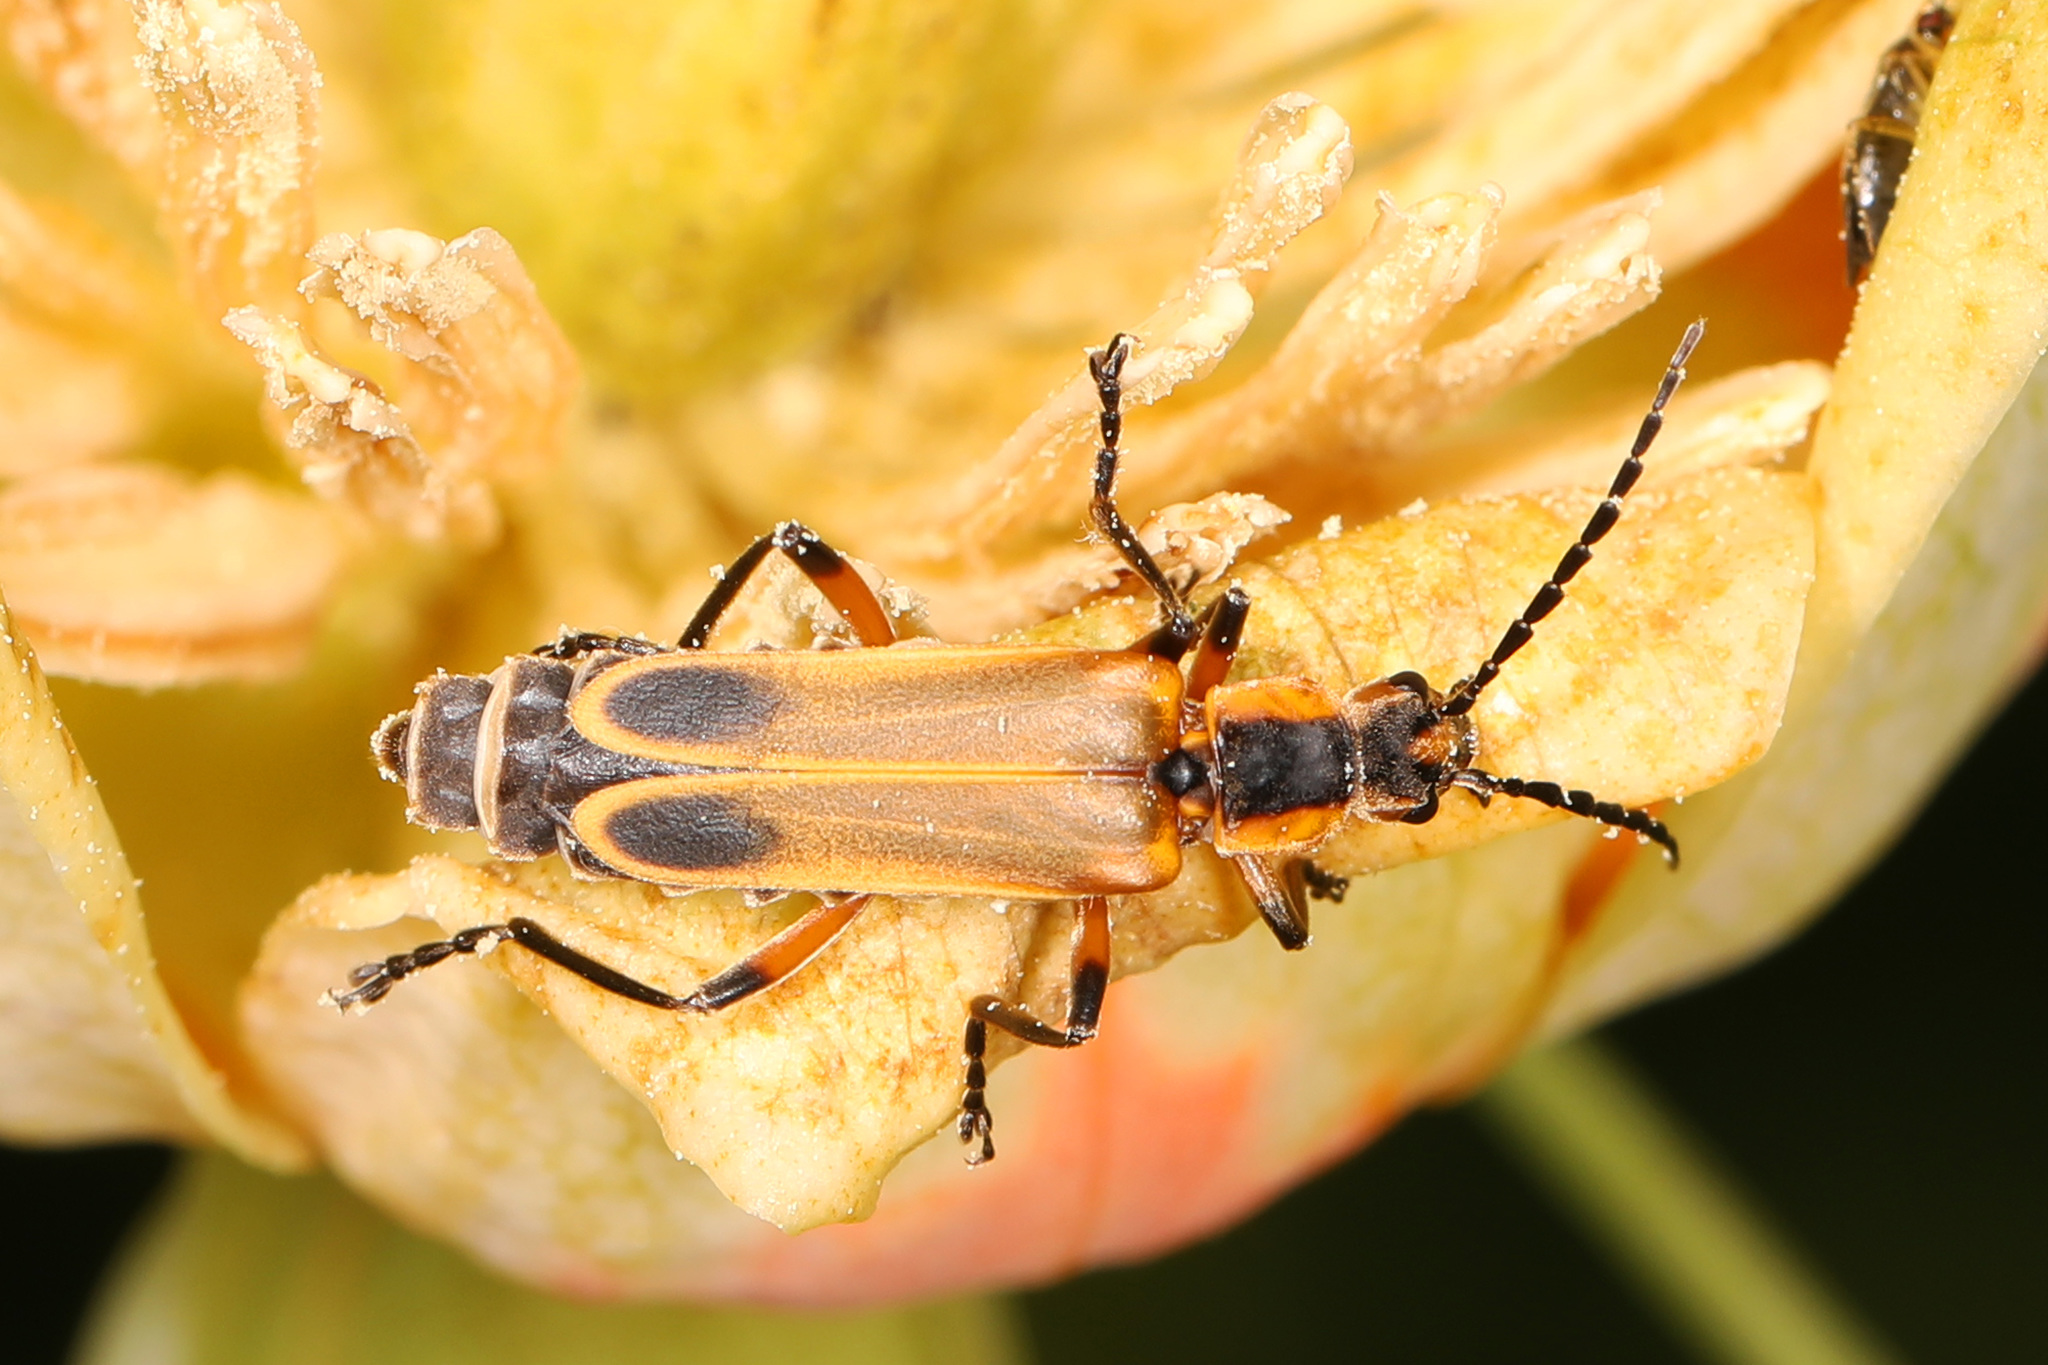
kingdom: Animalia
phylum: Arthropoda
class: Insecta
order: Coleoptera
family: Cantharidae
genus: Chauliognathus
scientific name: Chauliognathus marginatus
